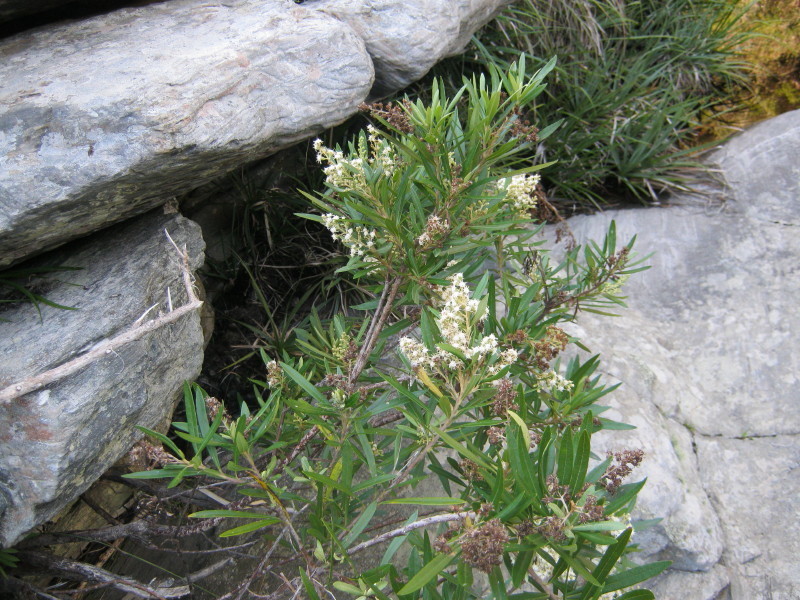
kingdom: Plantae
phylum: Tracheophyta
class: Magnoliopsida
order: Asterales
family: Asteraceae
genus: Brachylaena
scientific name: Brachylaena neriifolia
